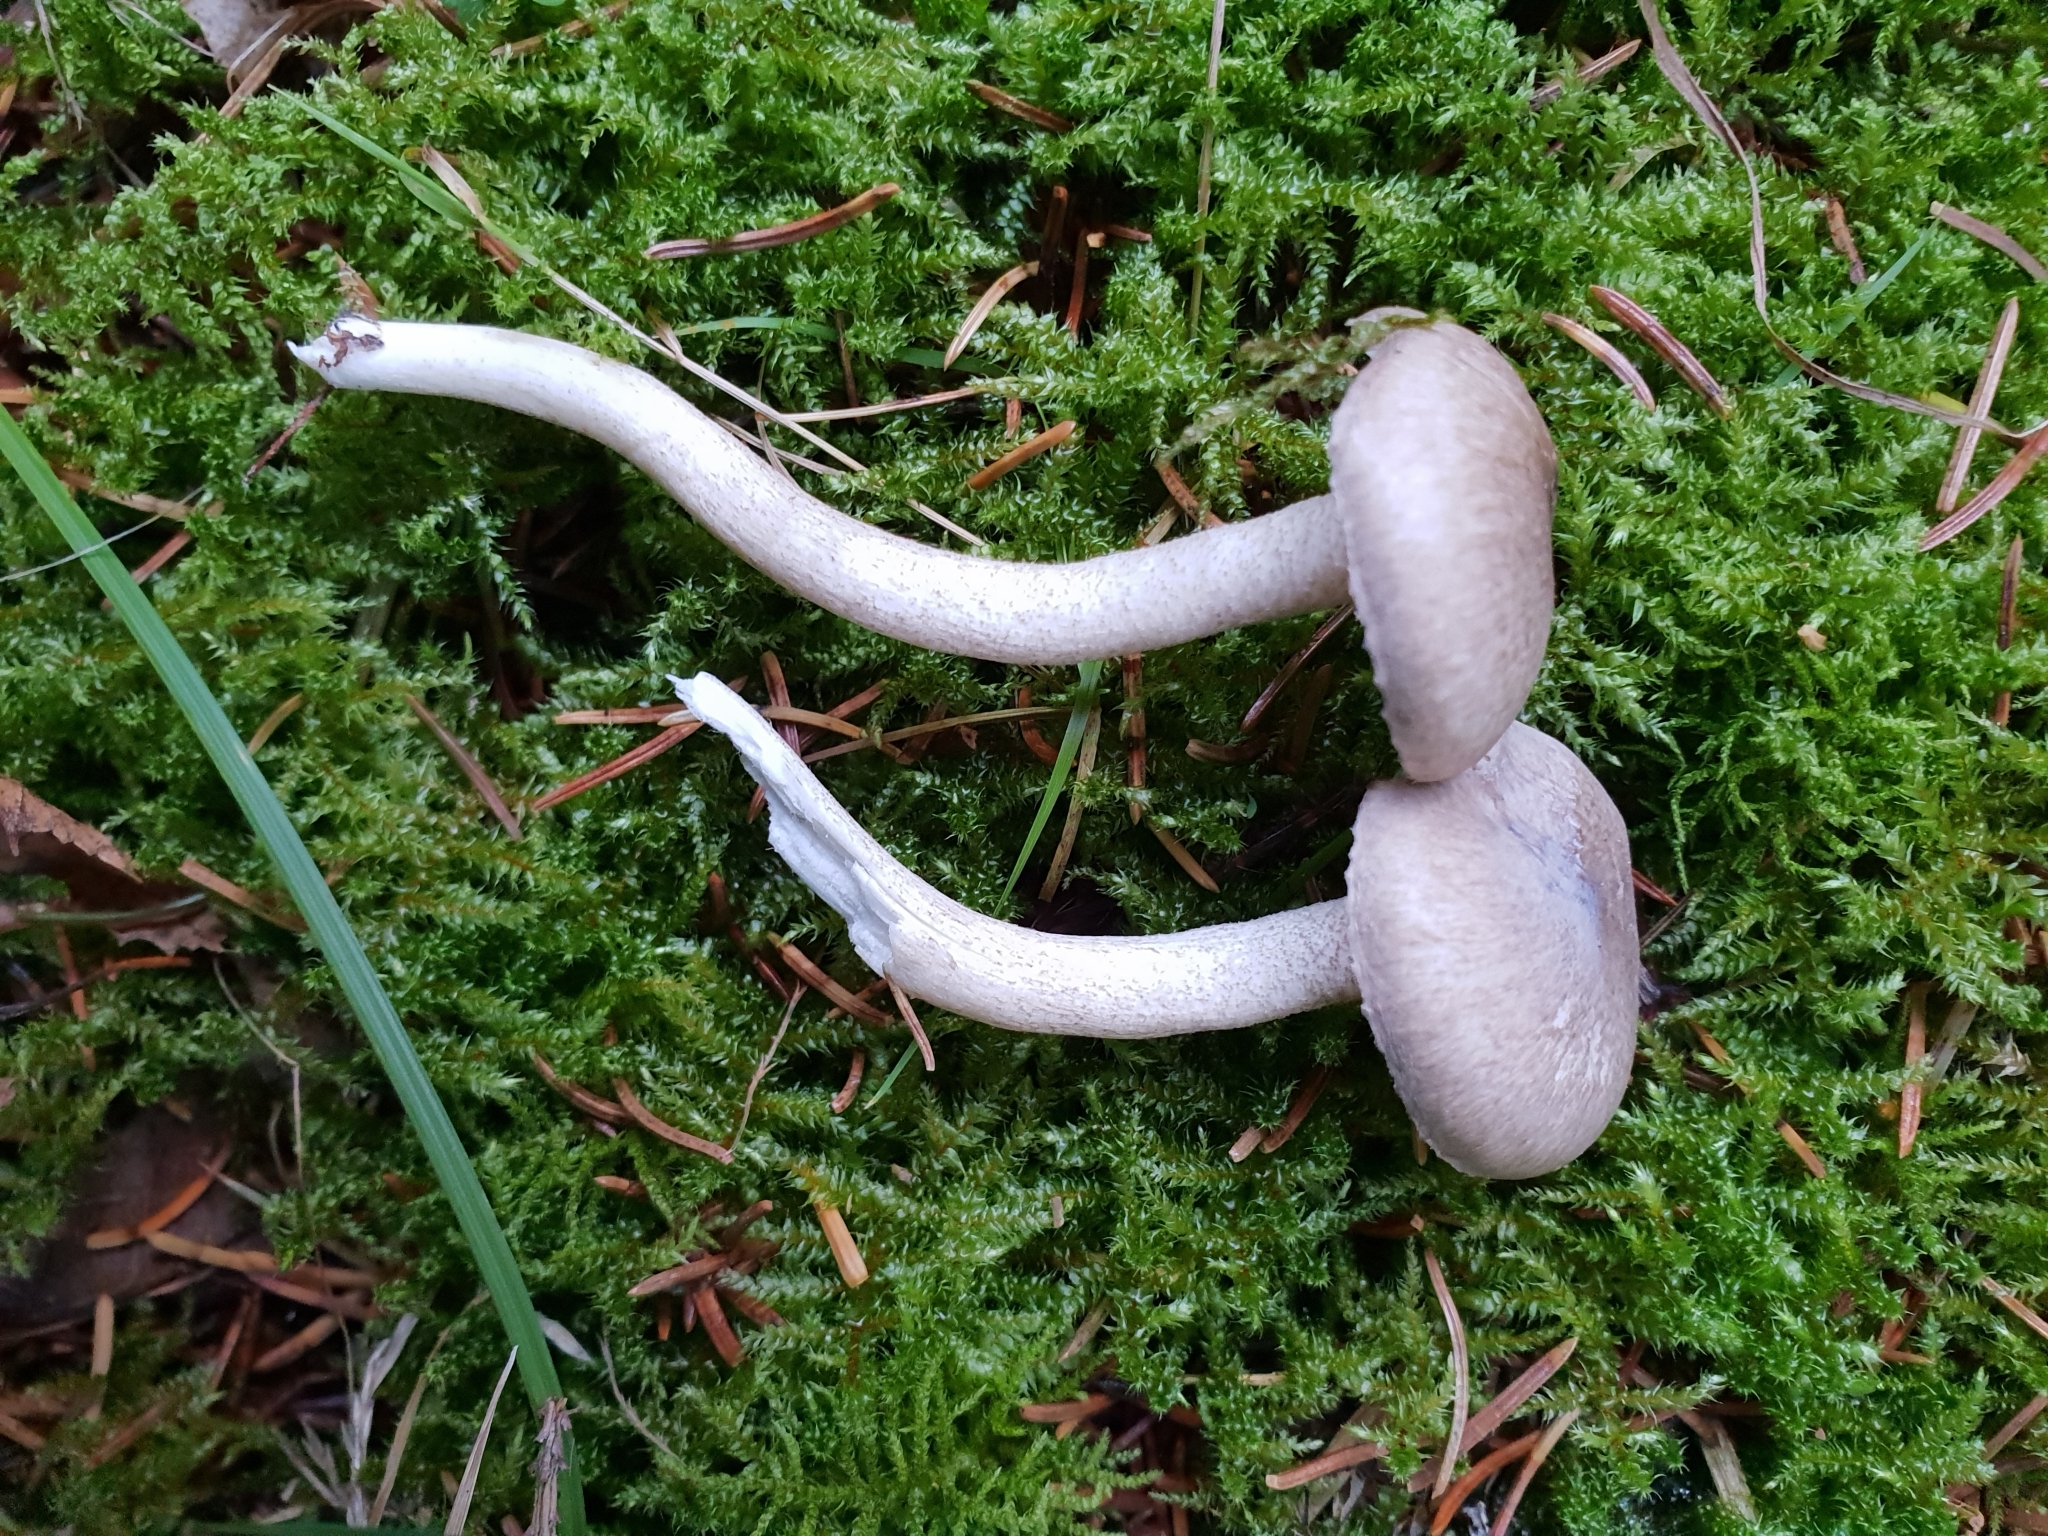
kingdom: Fungi
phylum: Basidiomycota
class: Agaricomycetes
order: Agaricales
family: Hygrophoraceae
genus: Hygrophorus
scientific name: Hygrophorus pustulatus
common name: Blistered woodwax
